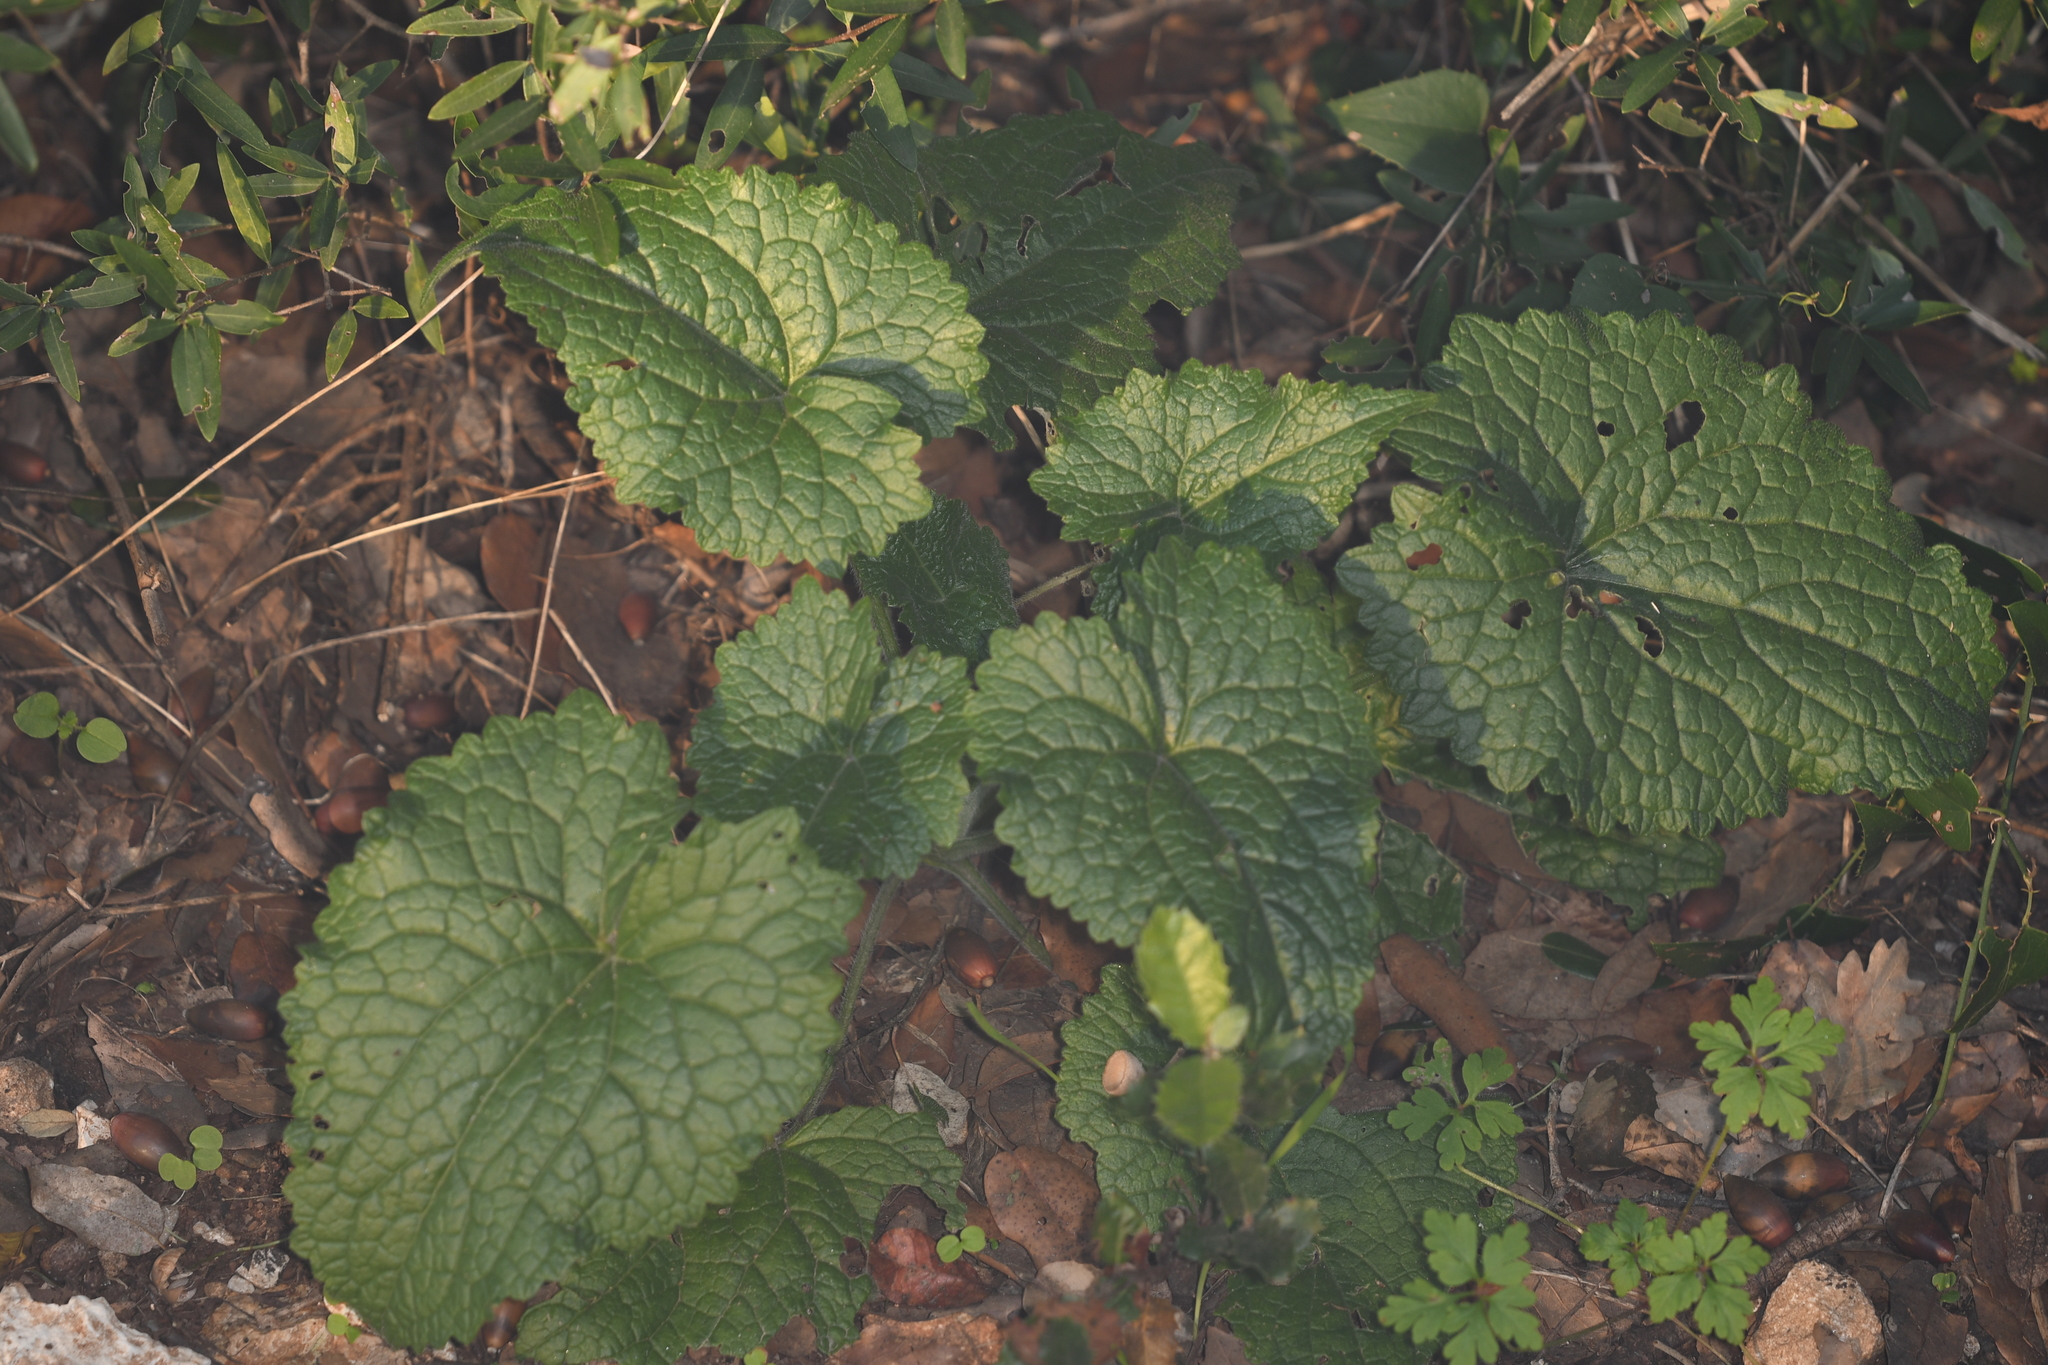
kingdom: Plantae
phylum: Tracheophyta
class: Magnoliopsida
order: Brassicales
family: Brassicaceae
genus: Alliaria
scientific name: Alliaria petiolata
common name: Garlic mustard
